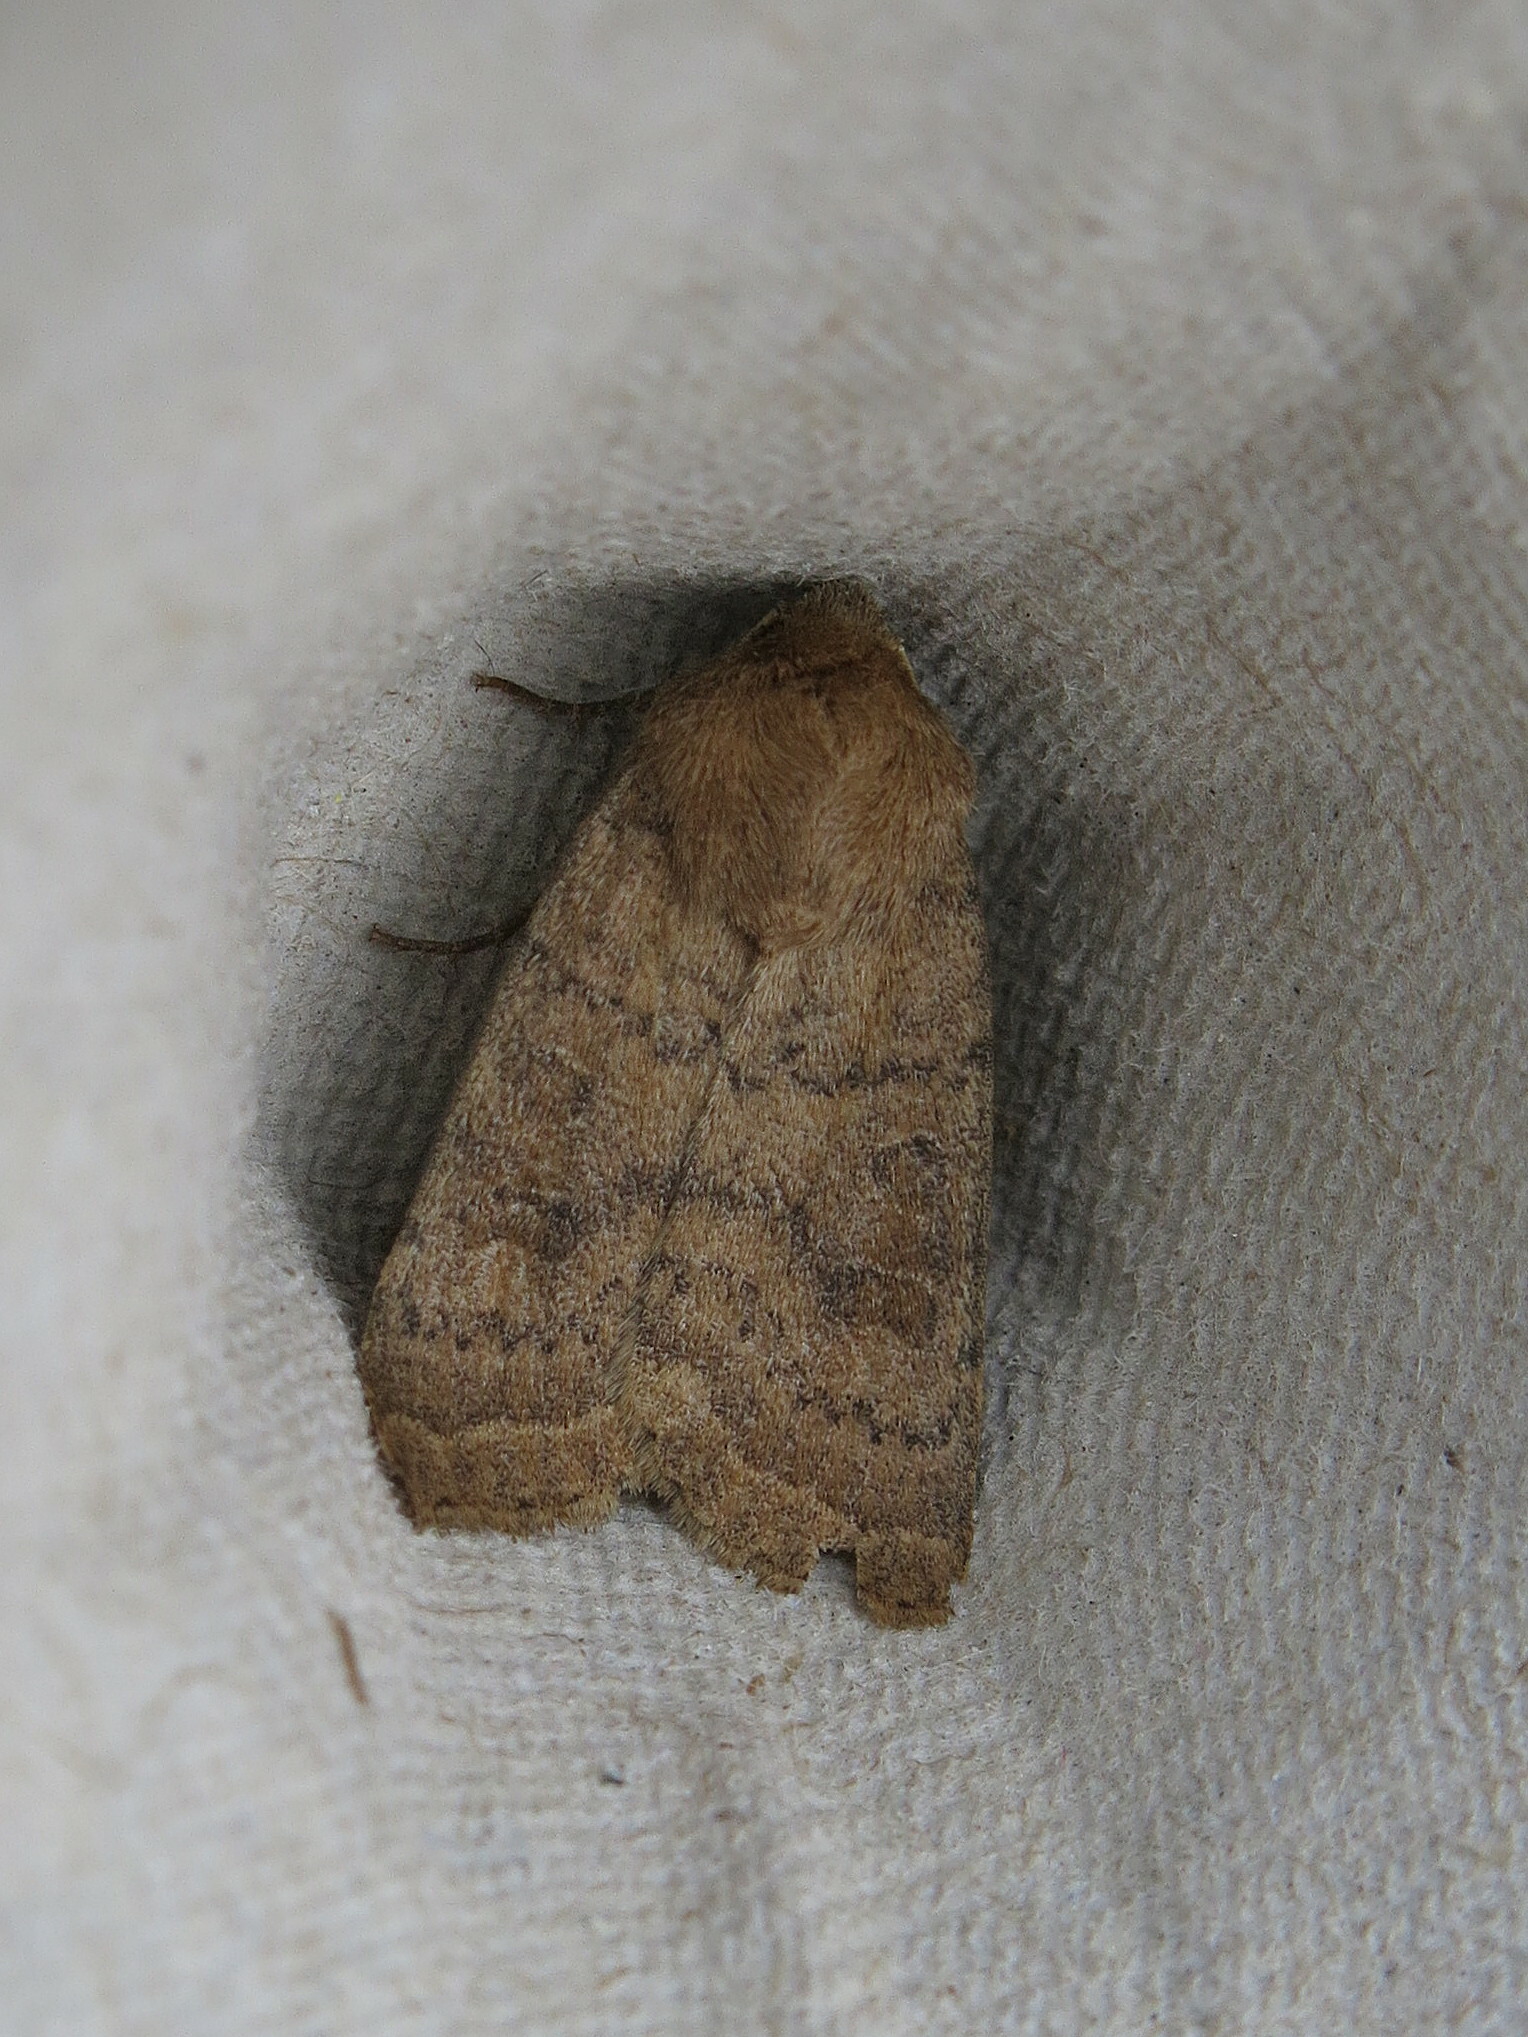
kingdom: Animalia
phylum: Arthropoda
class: Insecta
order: Lepidoptera
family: Noctuidae
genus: Hoplodrina
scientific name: Hoplodrina octogenaria
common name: Uncertain
